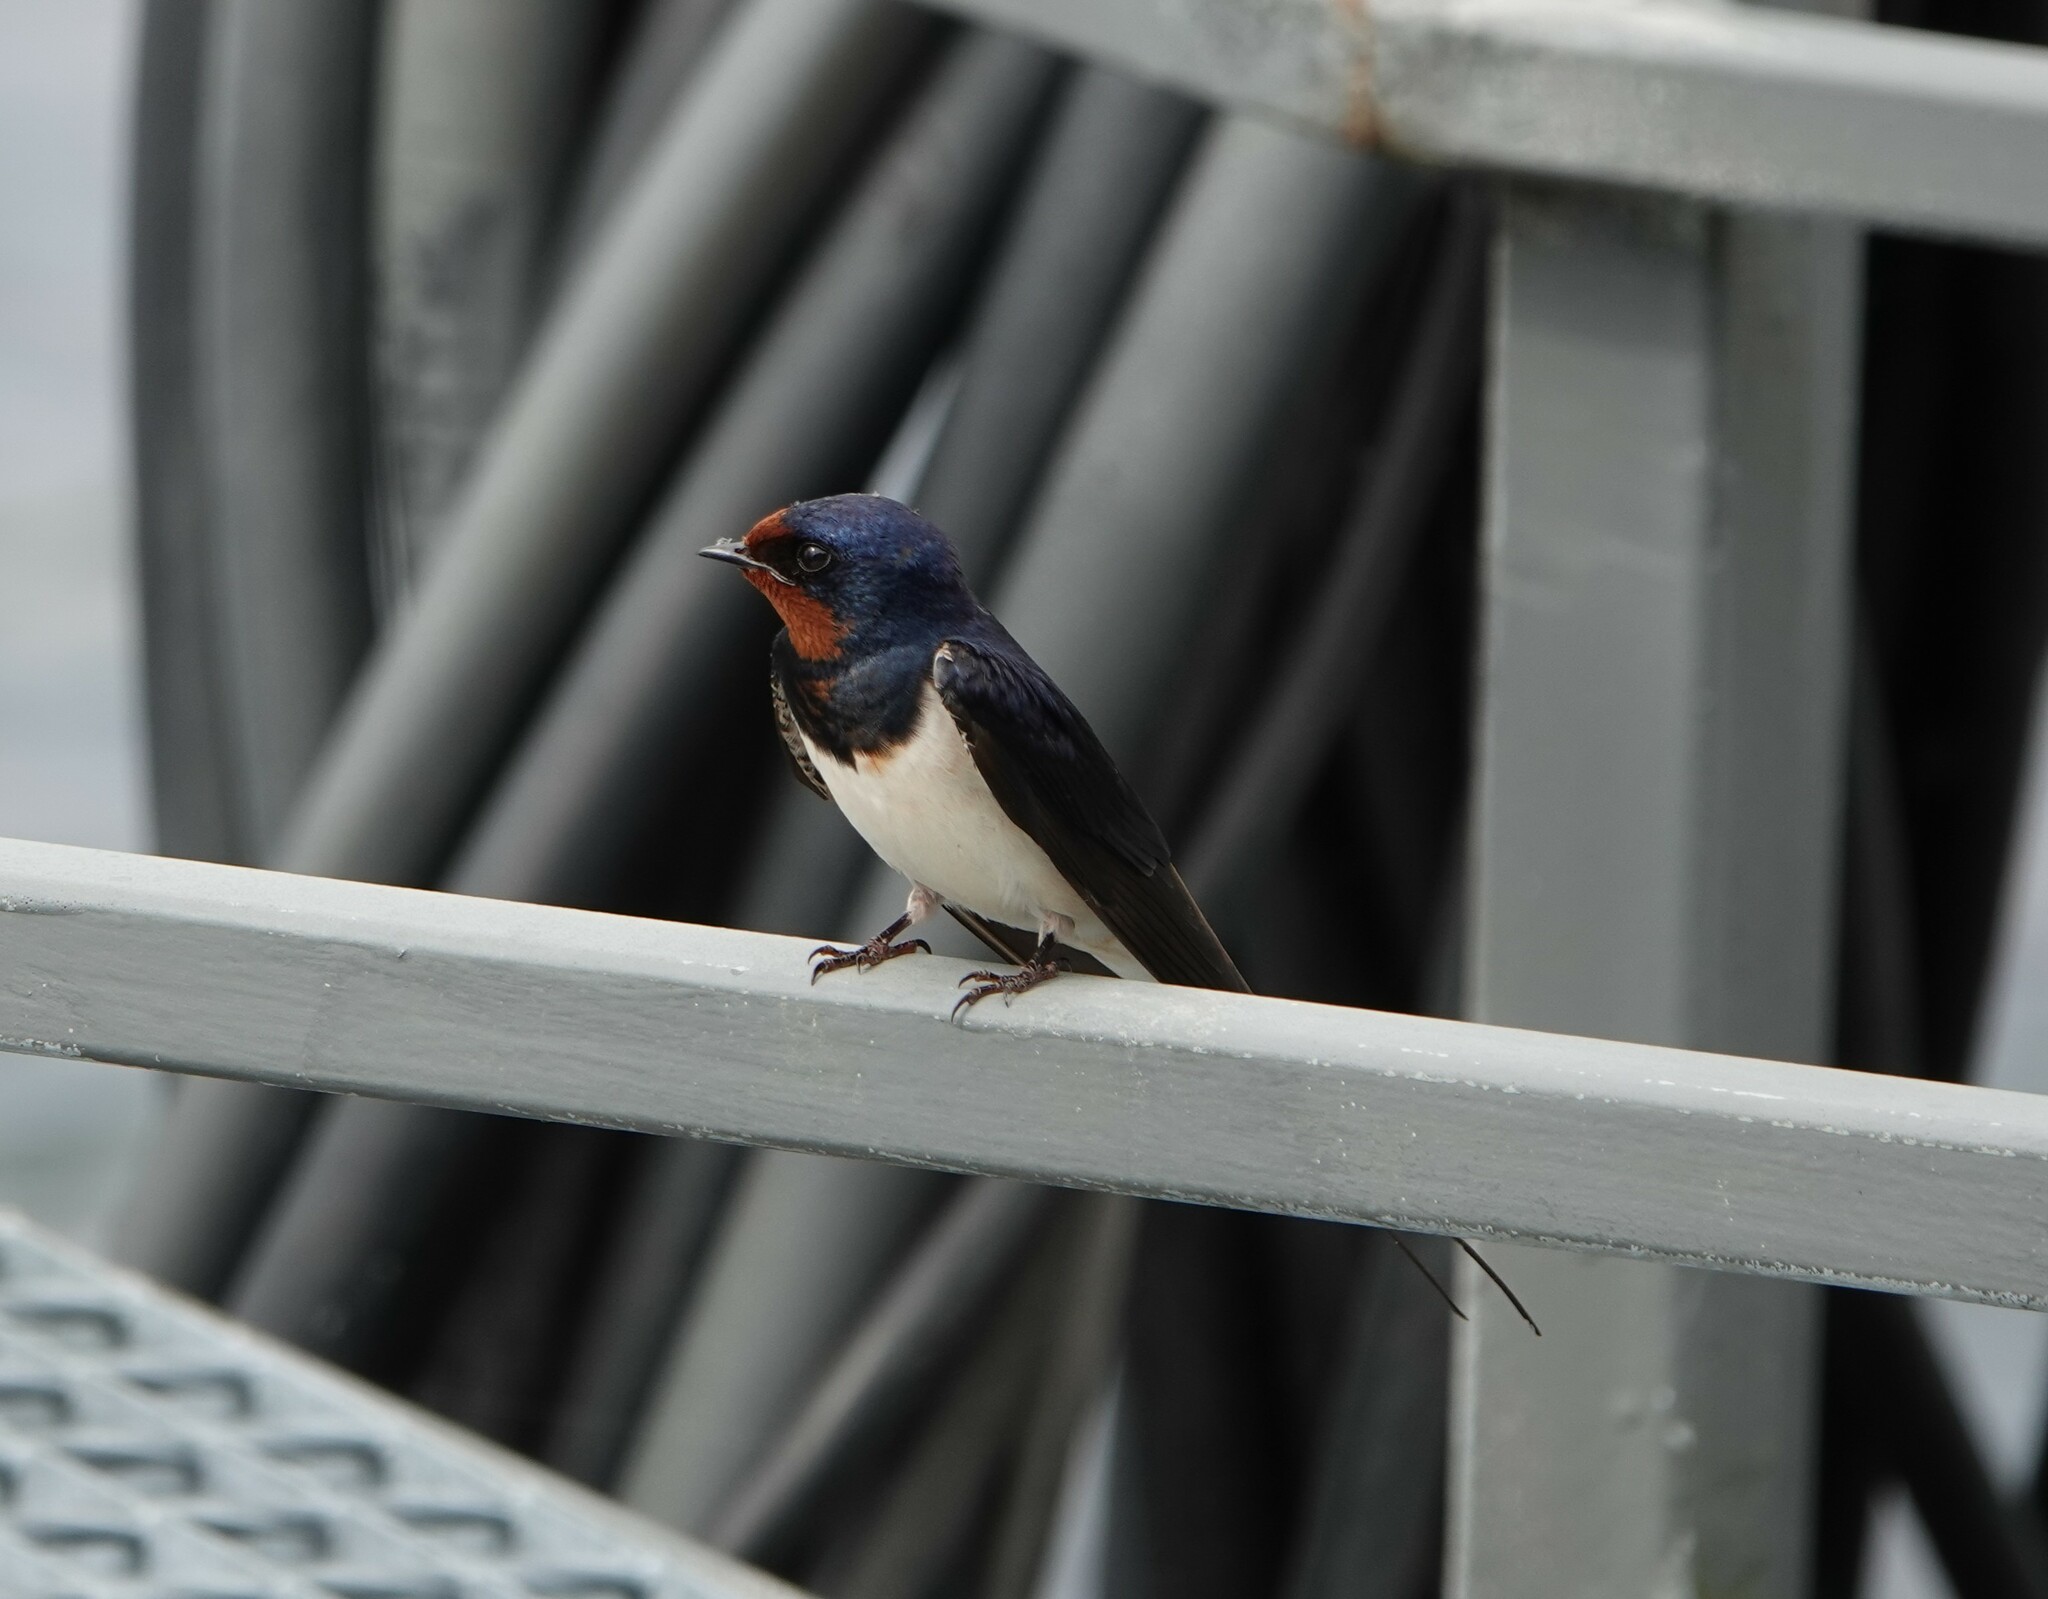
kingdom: Animalia
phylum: Chordata
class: Aves
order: Passeriformes
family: Hirundinidae
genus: Hirundo
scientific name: Hirundo rustica
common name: Barn swallow
